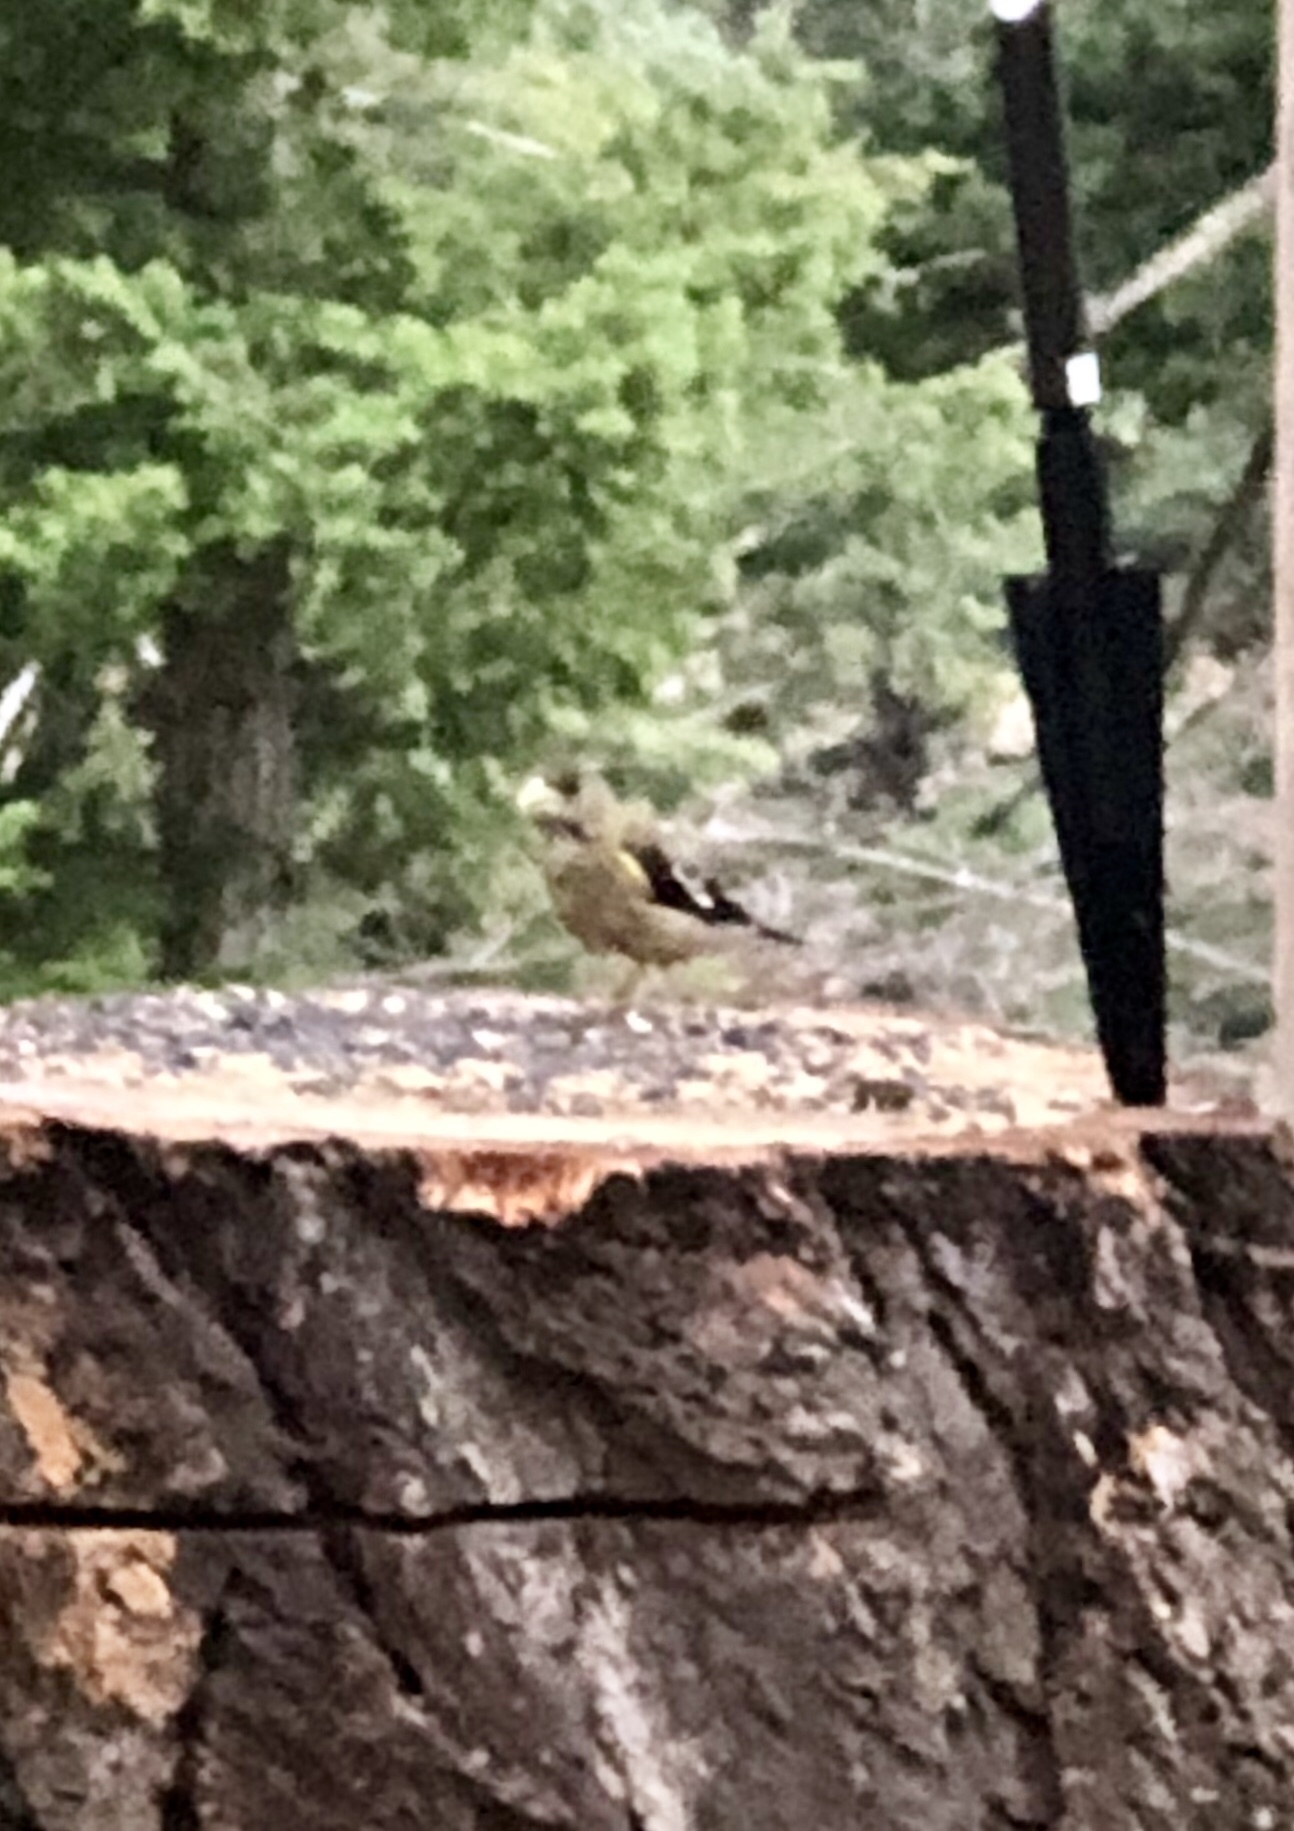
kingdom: Animalia
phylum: Chordata
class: Aves
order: Passeriformes
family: Fringillidae
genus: Hesperiphona
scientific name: Hesperiphona vespertina
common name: Evening grosbeak
